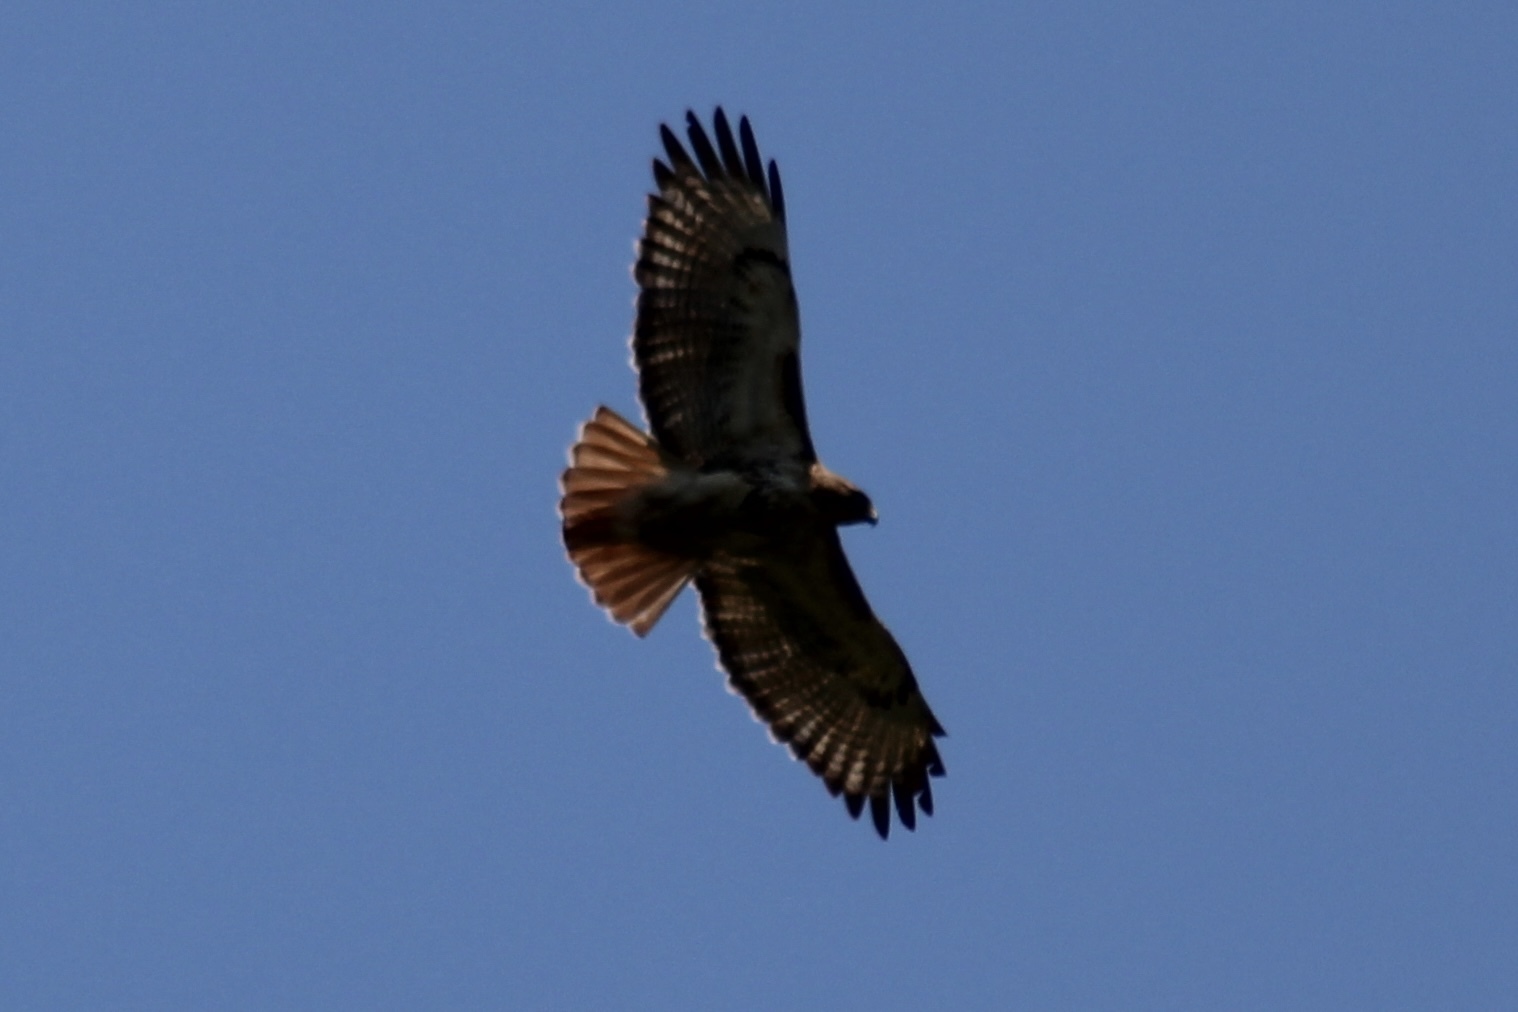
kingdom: Animalia
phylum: Chordata
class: Aves
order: Accipitriformes
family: Accipitridae
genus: Buteo
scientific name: Buteo jamaicensis
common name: Red-tailed hawk
